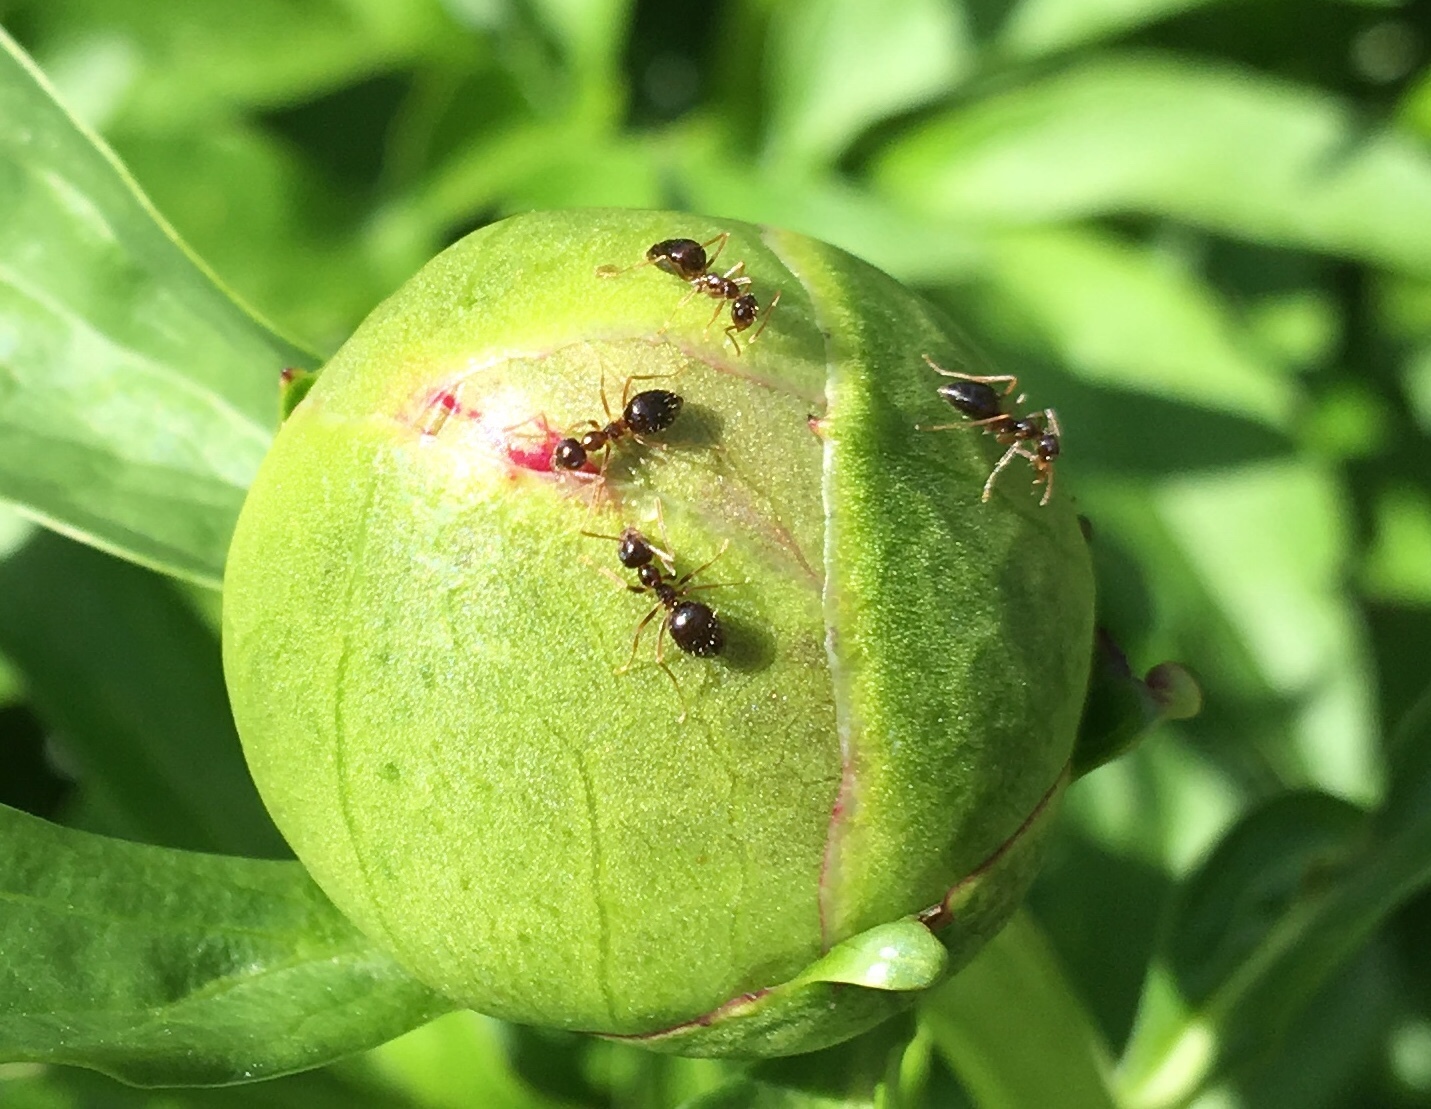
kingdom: Animalia
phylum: Arthropoda
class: Insecta
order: Hymenoptera
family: Formicidae
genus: Prenolepis
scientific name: Prenolepis imparis
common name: Small honey ant
